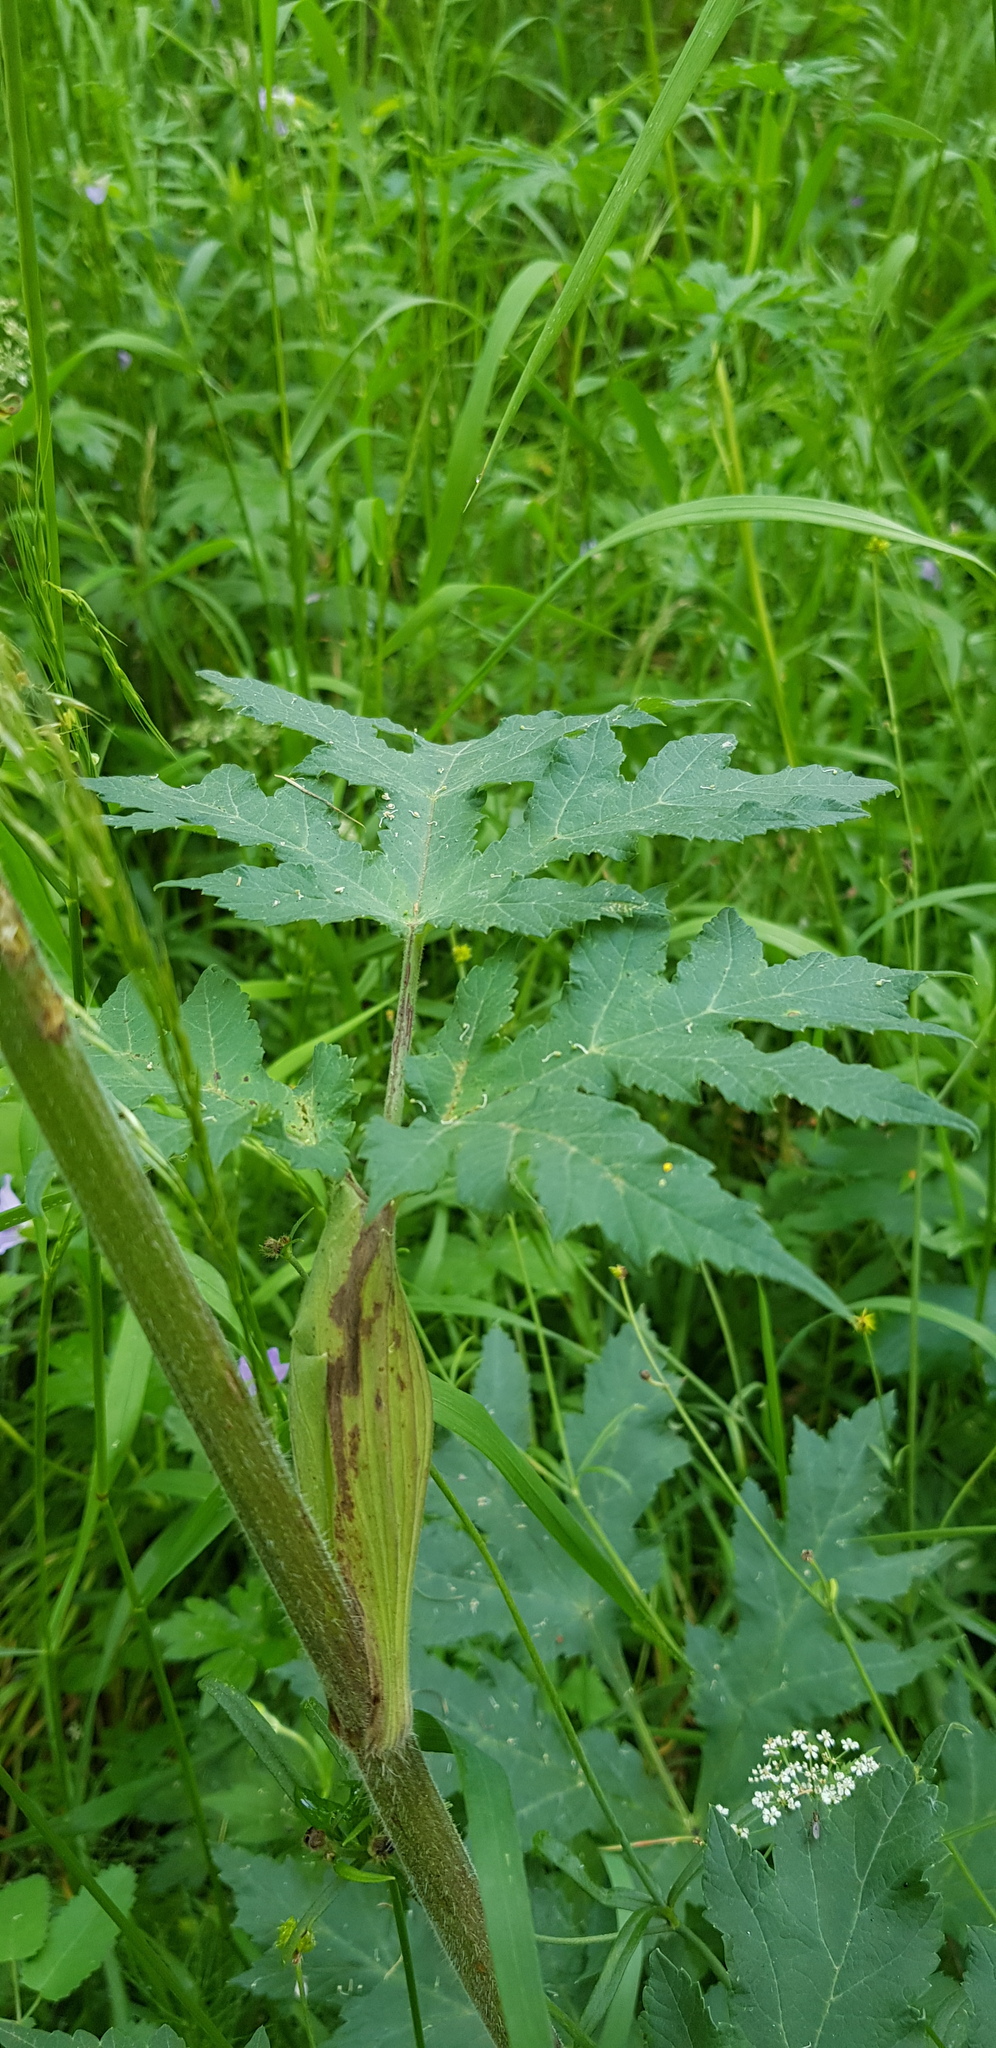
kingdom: Plantae
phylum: Tracheophyta
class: Magnoliopsida
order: Apiales
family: Apiaceae
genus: Heracleum
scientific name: Heracleum dissectum
